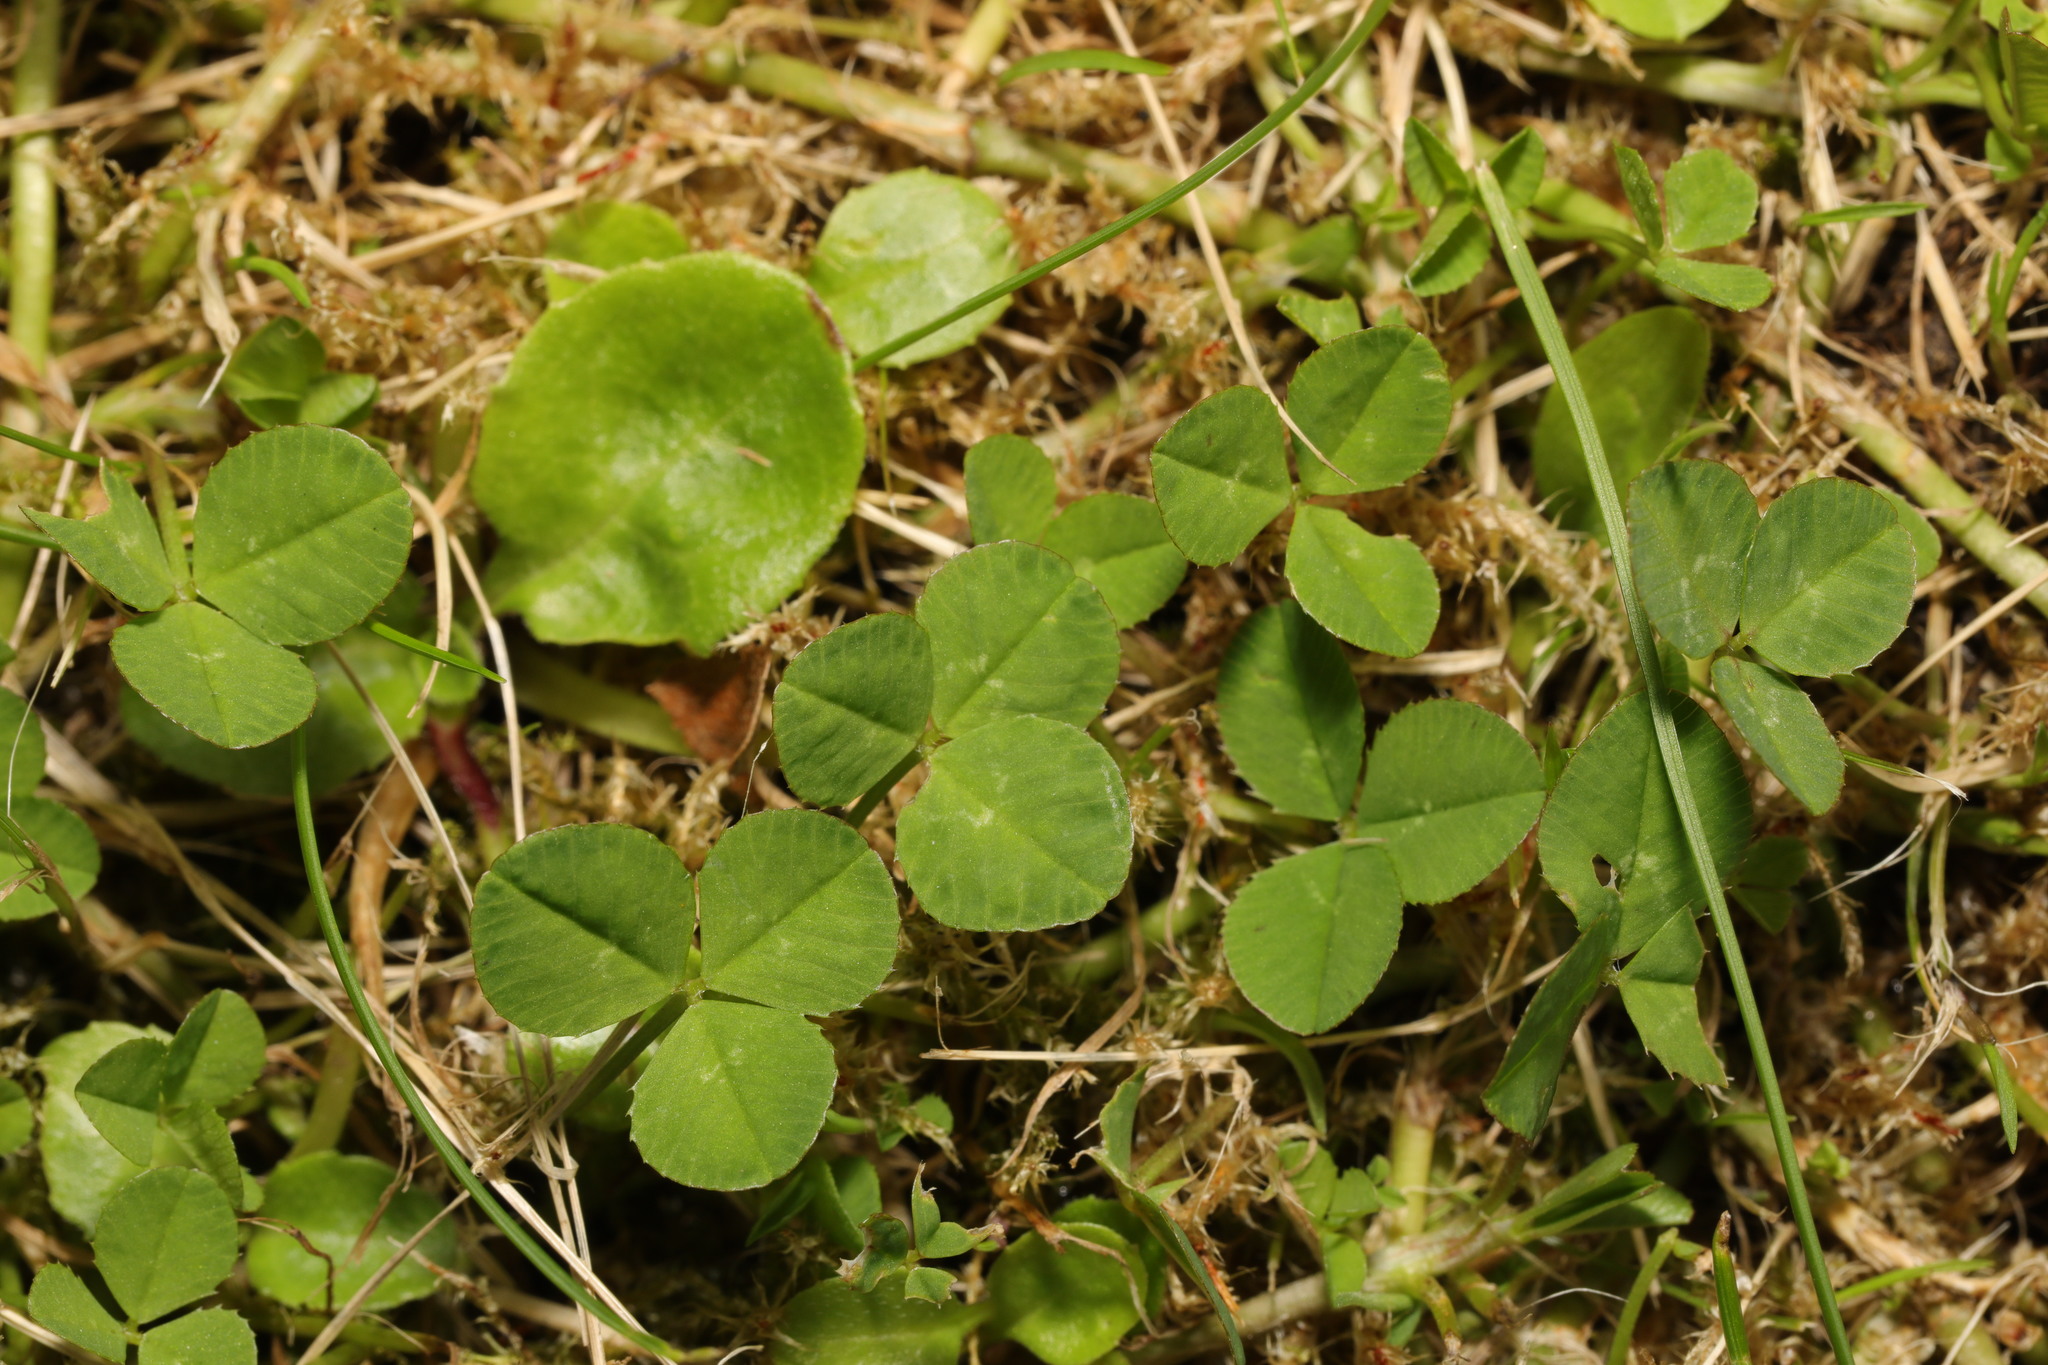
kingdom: Plantae
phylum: Tracheophyta
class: Magnoliopsida
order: Fabales
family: Fabaceae
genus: Trifolium
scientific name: Trifolium repens
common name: White clover
